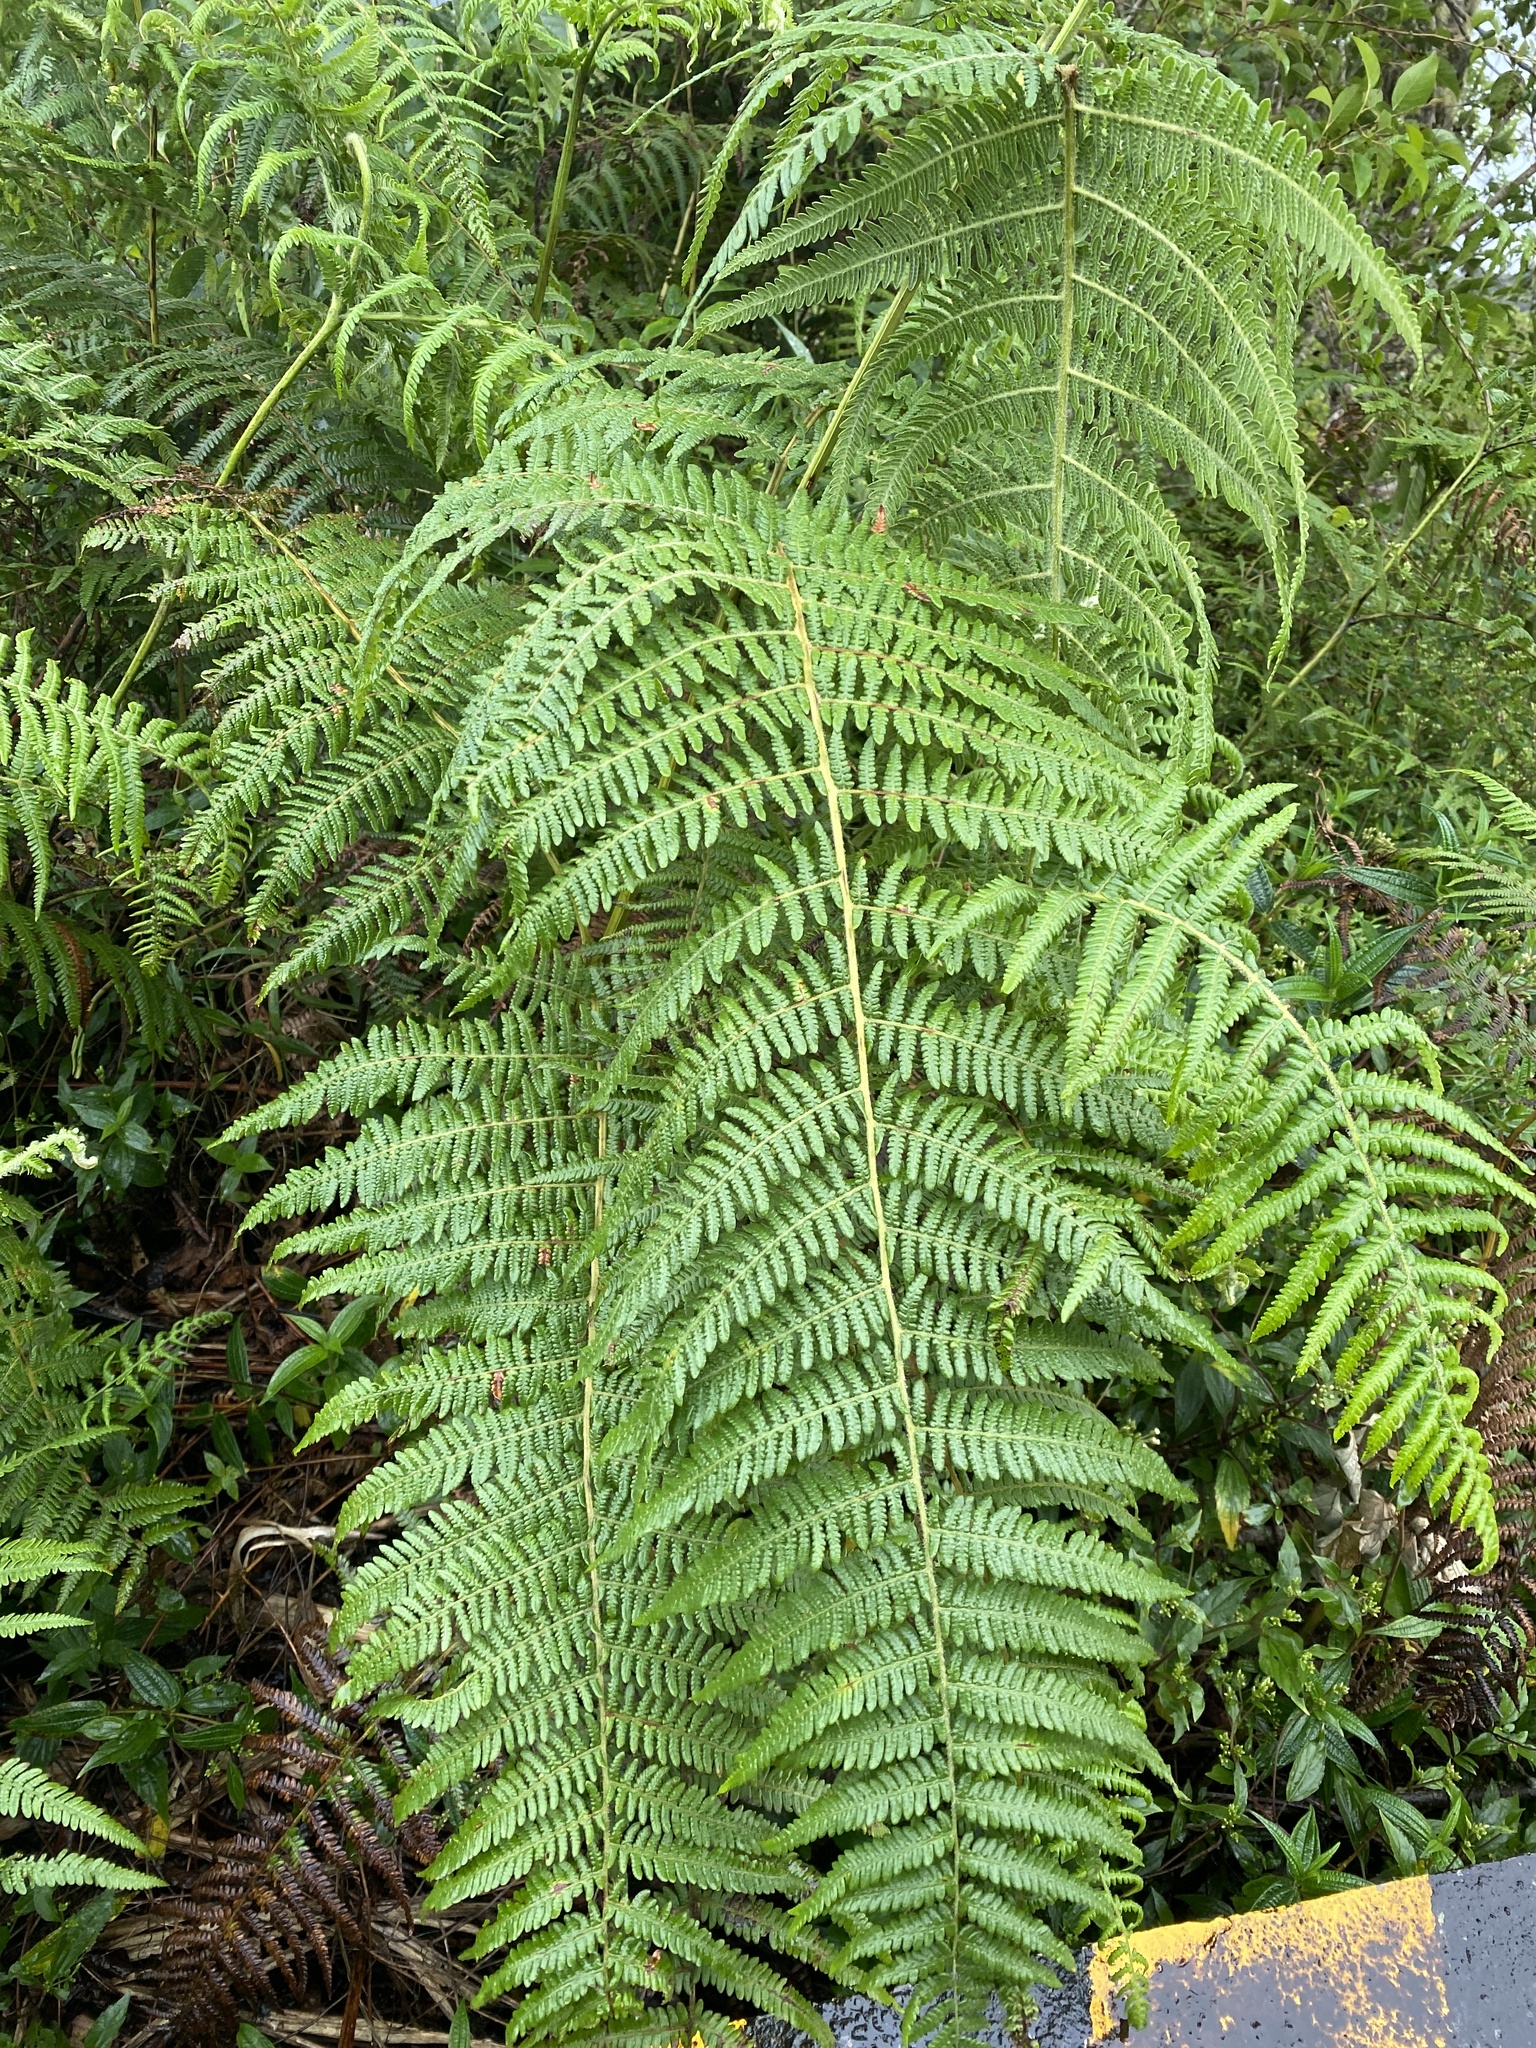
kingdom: Plantae
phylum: Tracheophyta
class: Polypodiopsida
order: Polypodiales
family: Dennstaedtiaceae
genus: Pteridium
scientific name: Pteridium aquilinum
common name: Bracken
